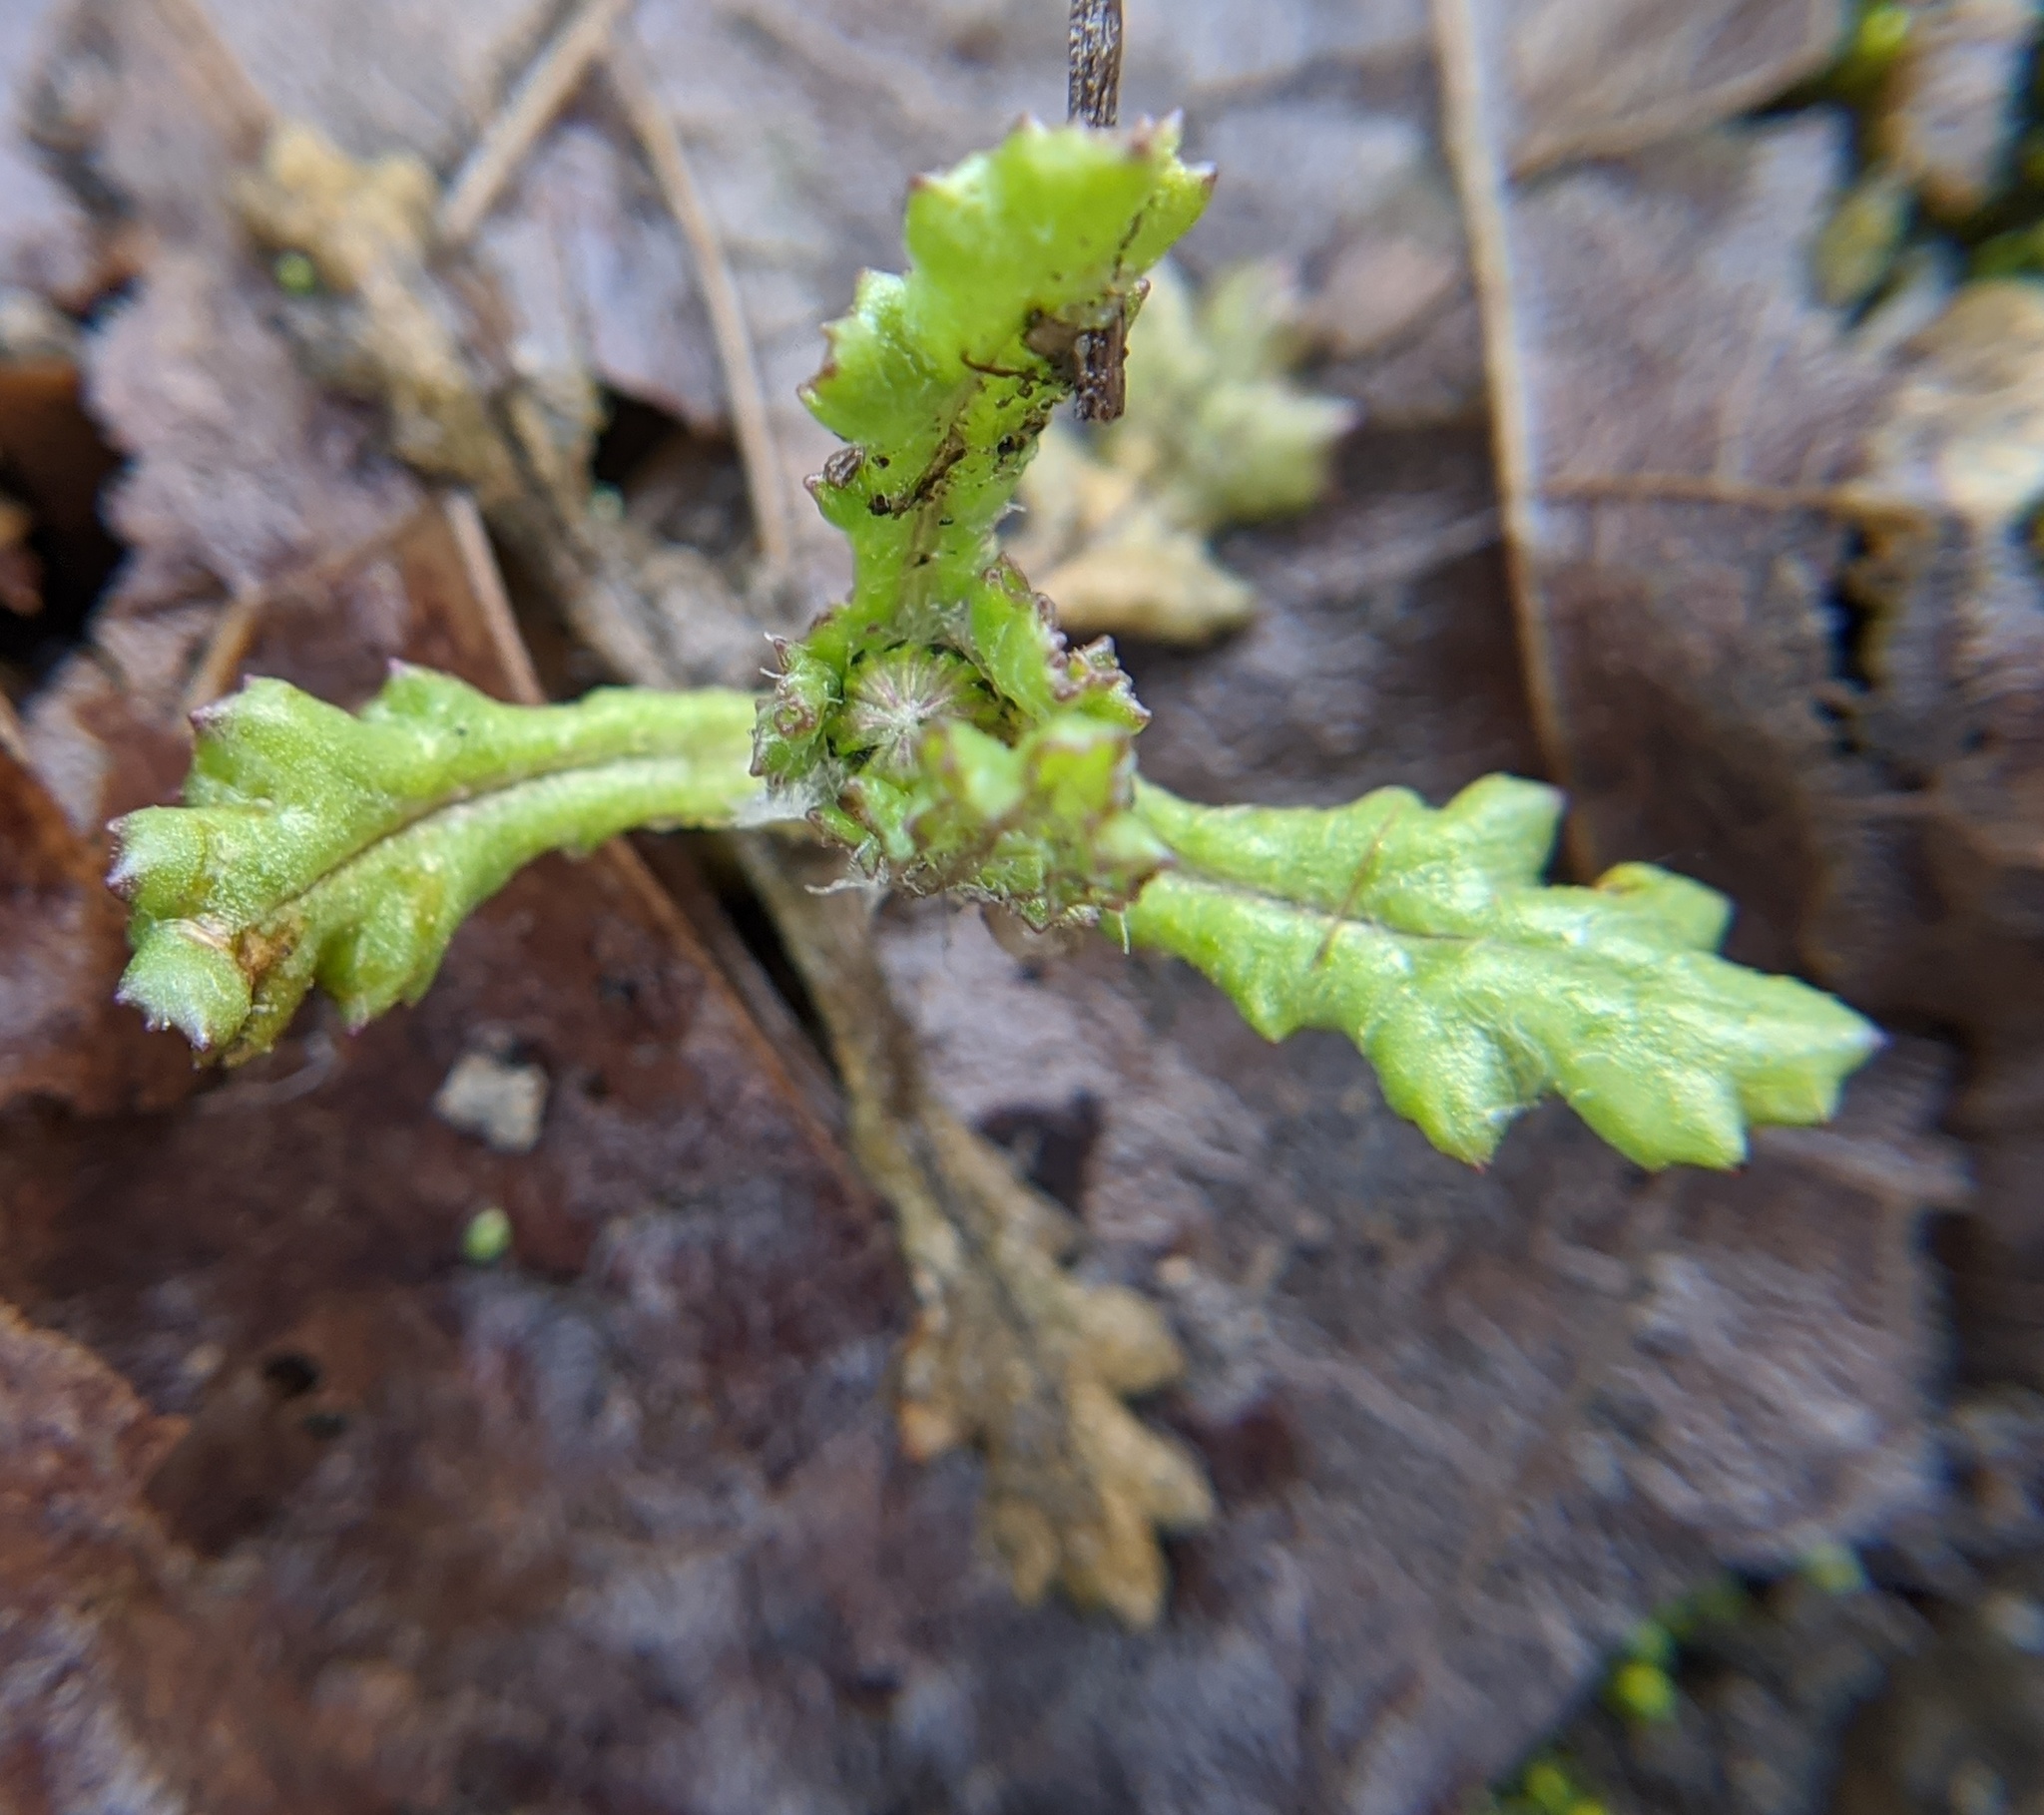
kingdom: Plantae
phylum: Tracheophyta
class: Magnoliopsida
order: Asterales
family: Asteraceae
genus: Senecio
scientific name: Senecio vulgaris
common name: Old-man-in-the-spring
